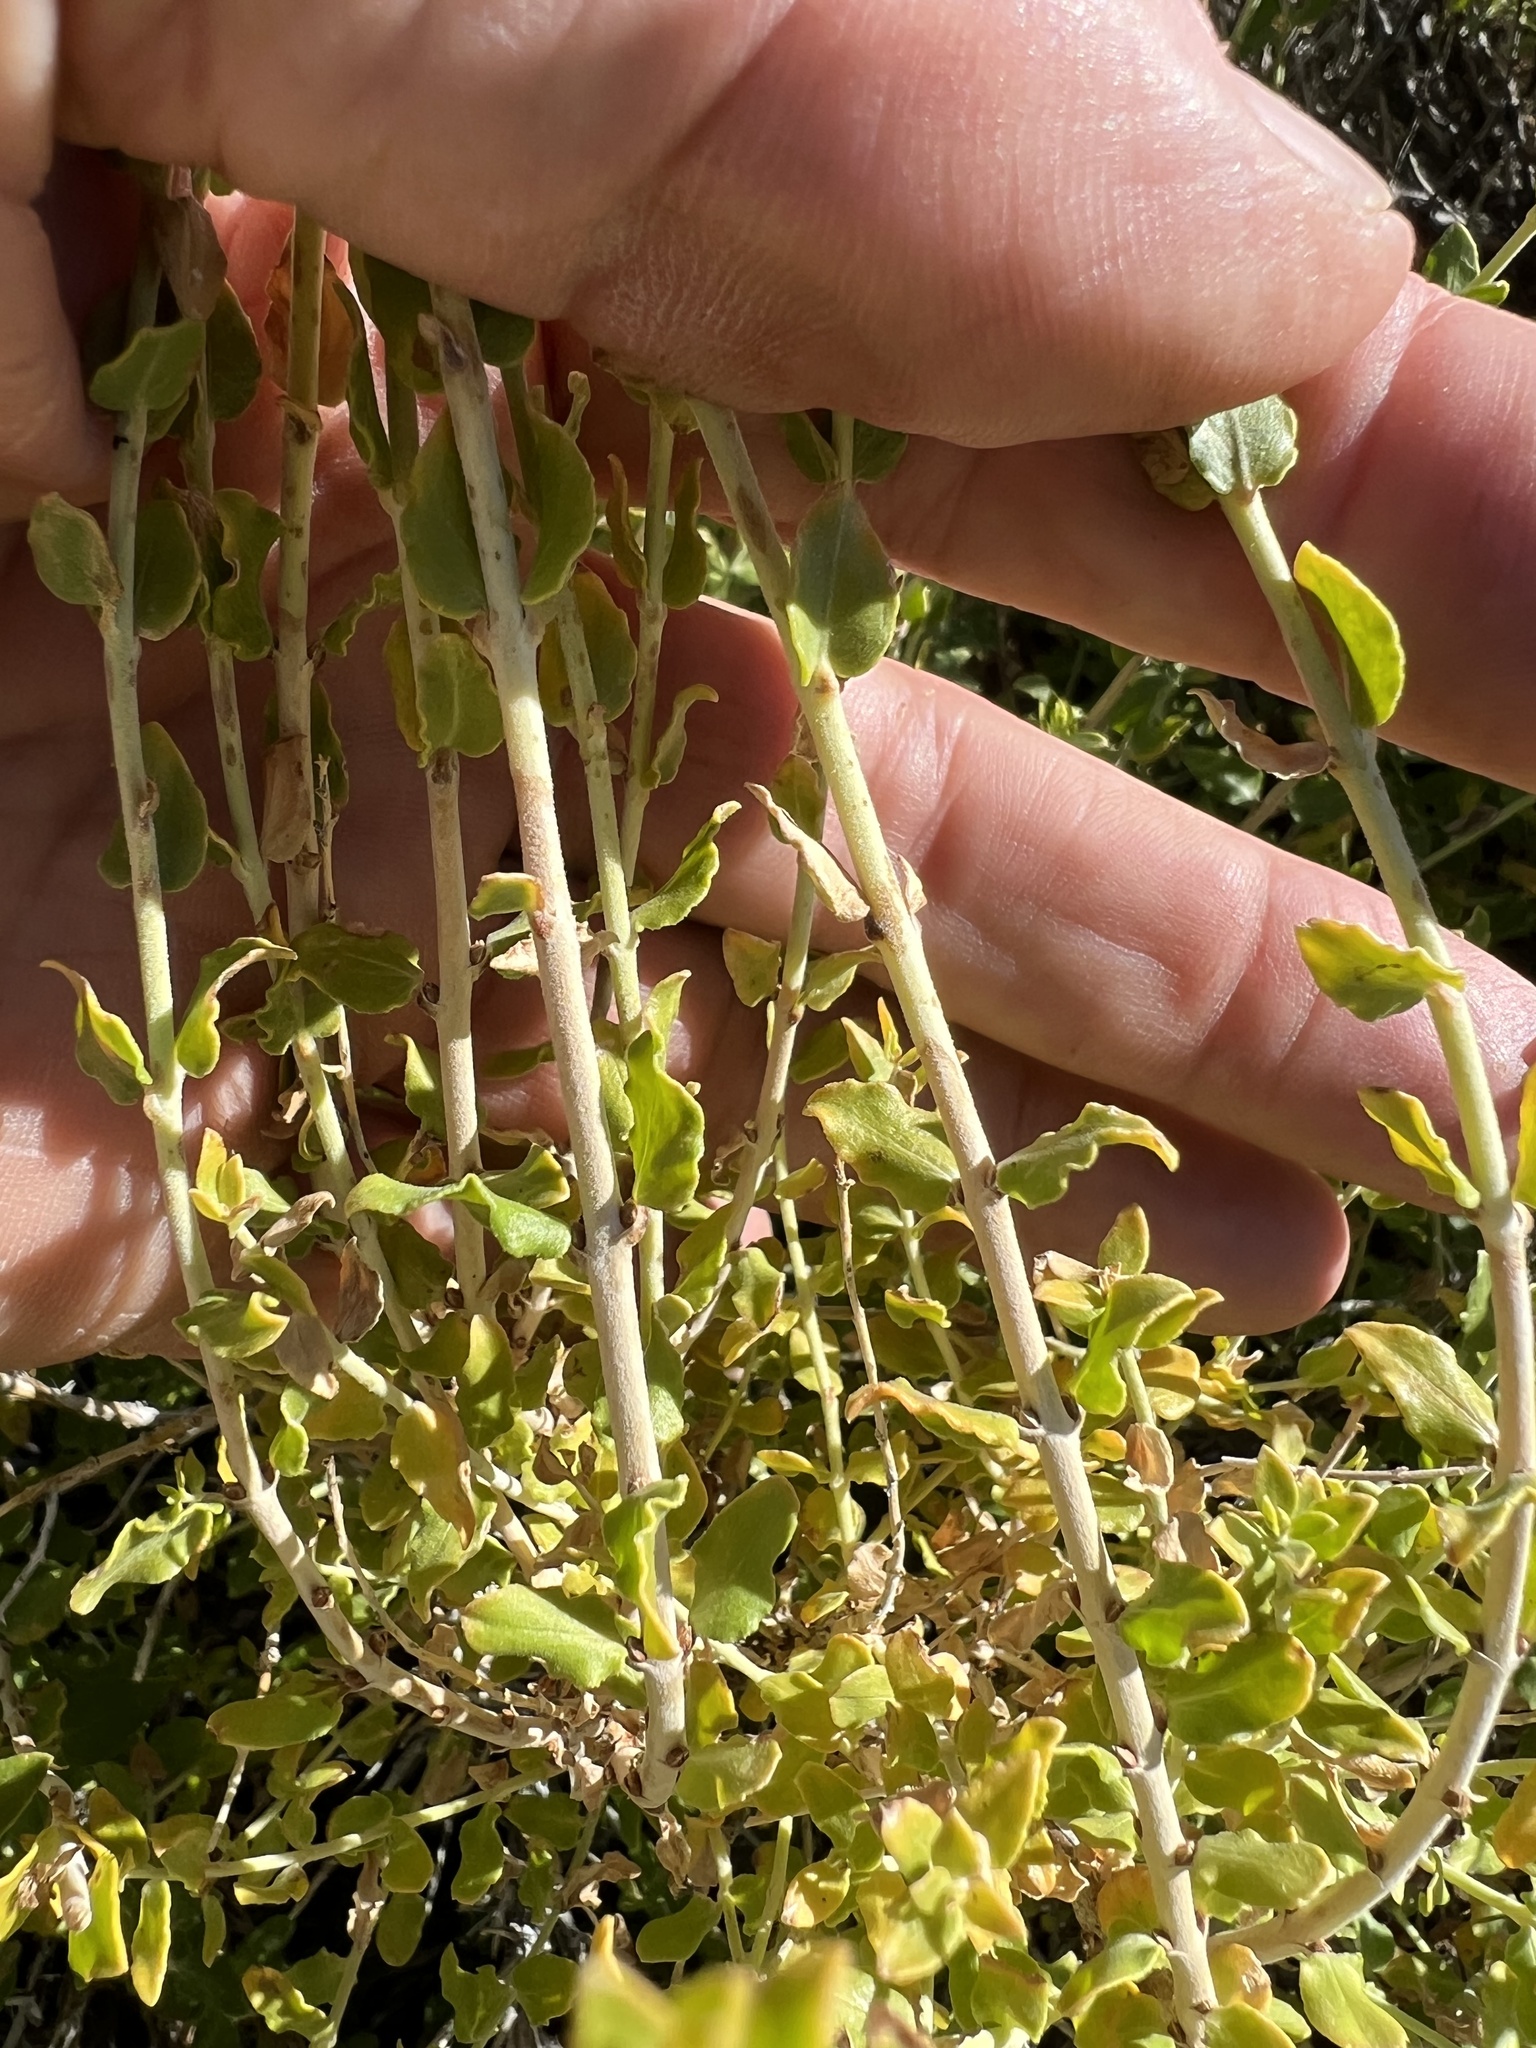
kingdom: Plantae
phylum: Tracheophyta
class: Magnoliopsida
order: Lamiales
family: Plantaginaceae
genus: Keckiella
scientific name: Keckiella rothrockii
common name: Rothrock's keckiella
